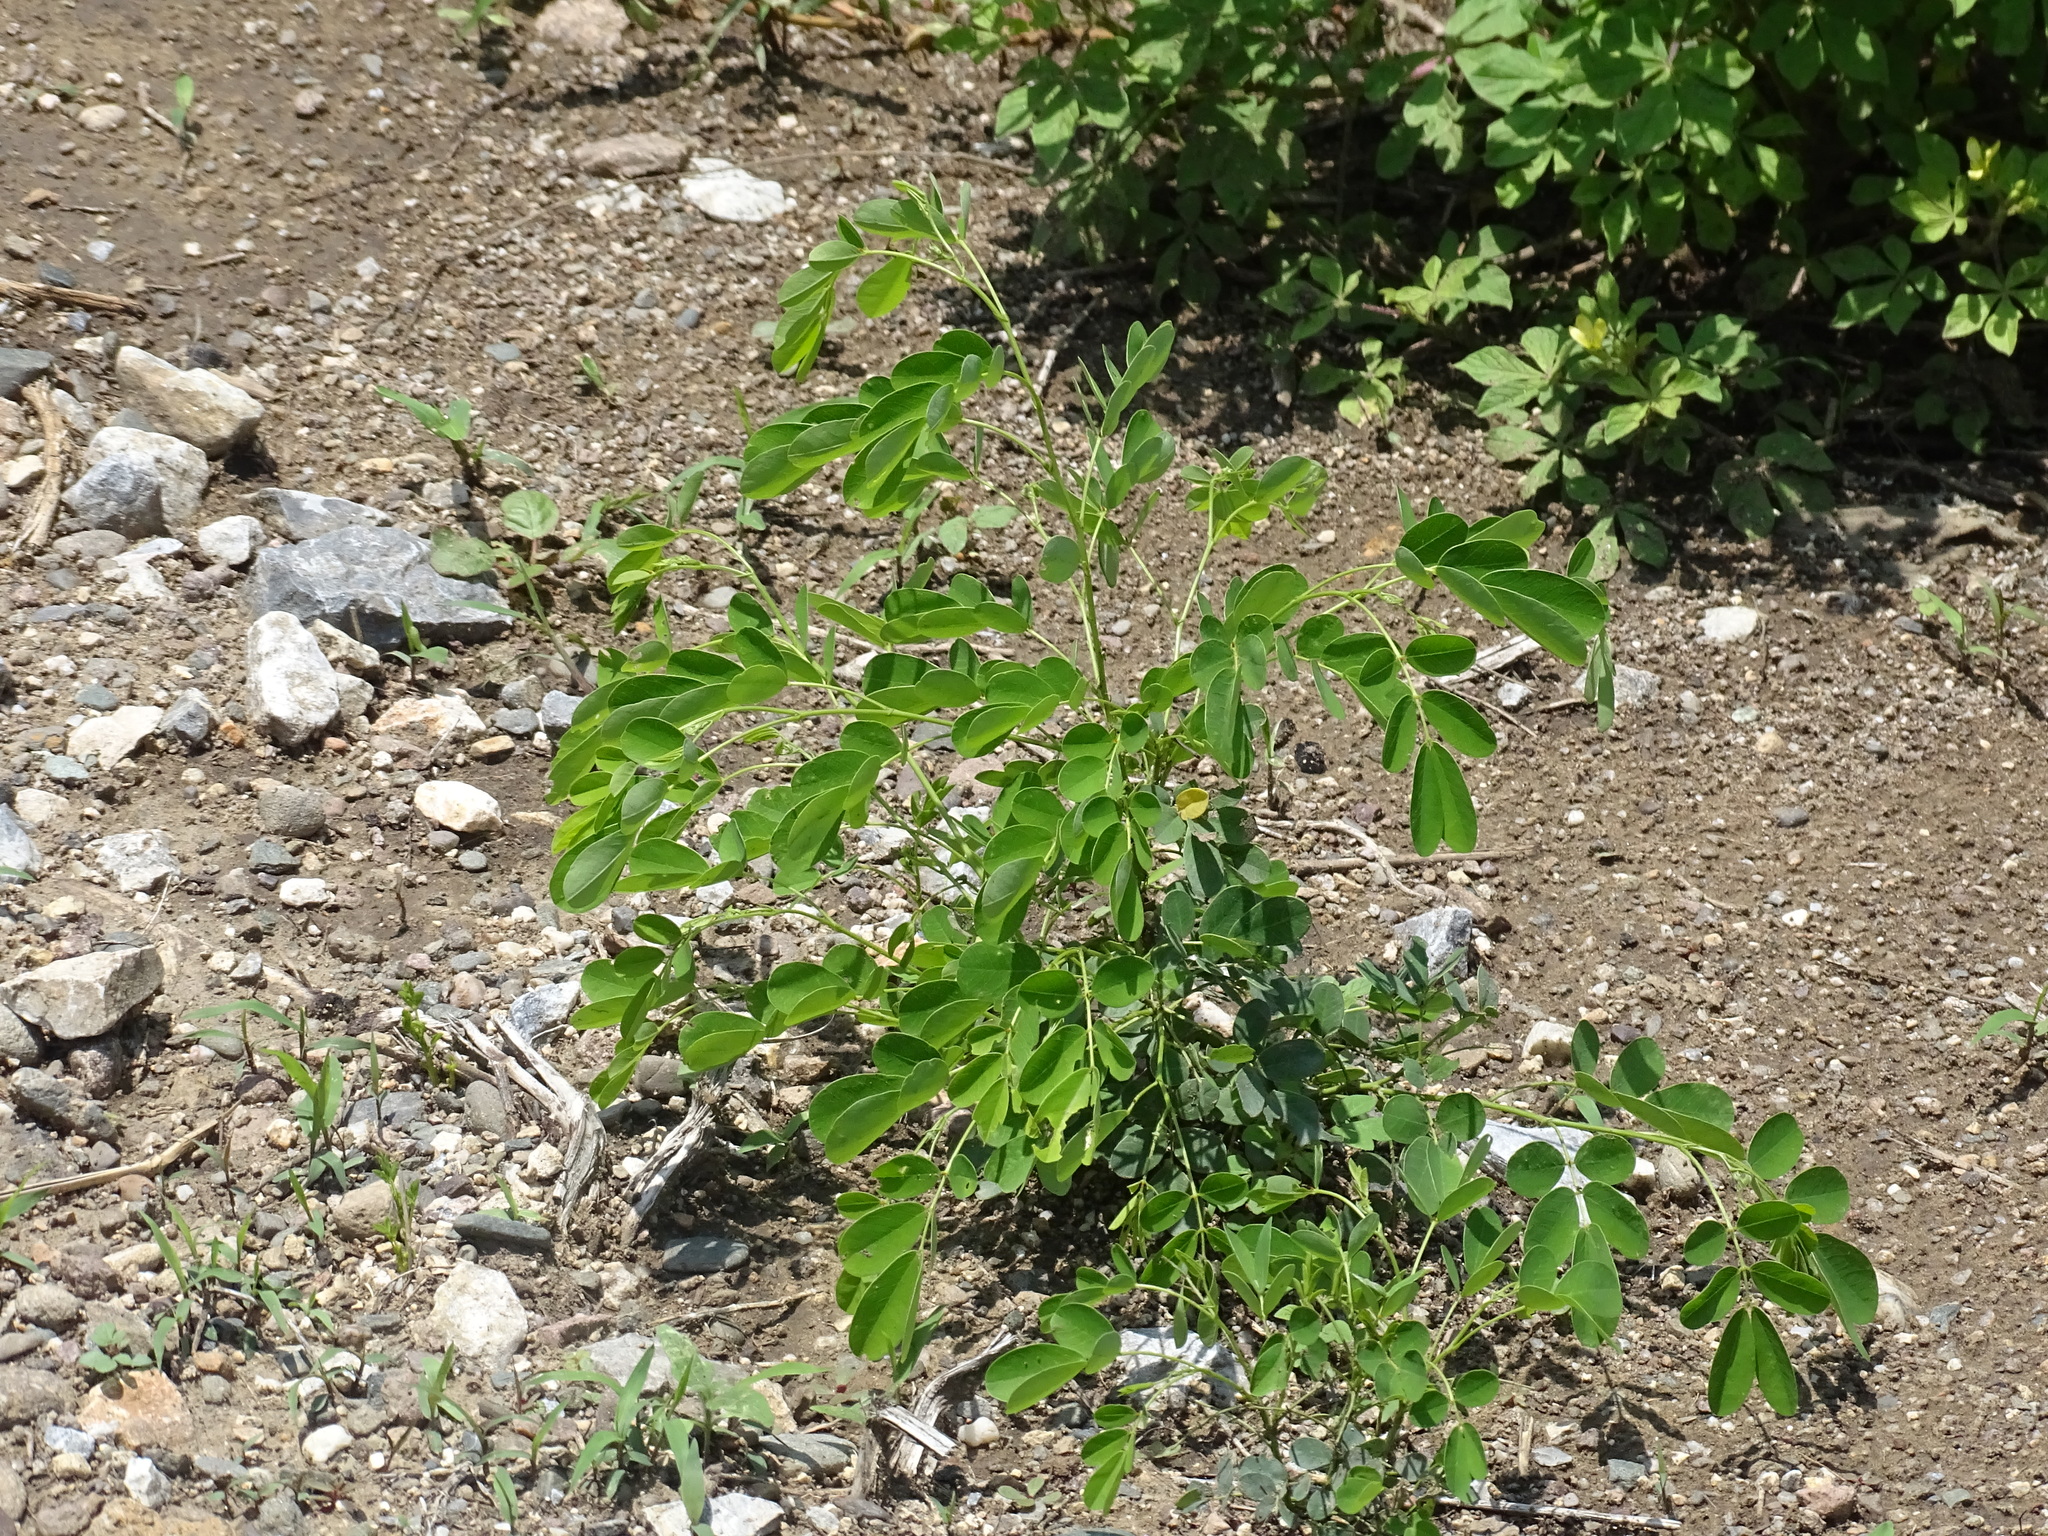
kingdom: Plantae
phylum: Tracheophyta
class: Magnoliopsida
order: Fabales
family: Fabaceae
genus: Senna
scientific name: Senna pallida
